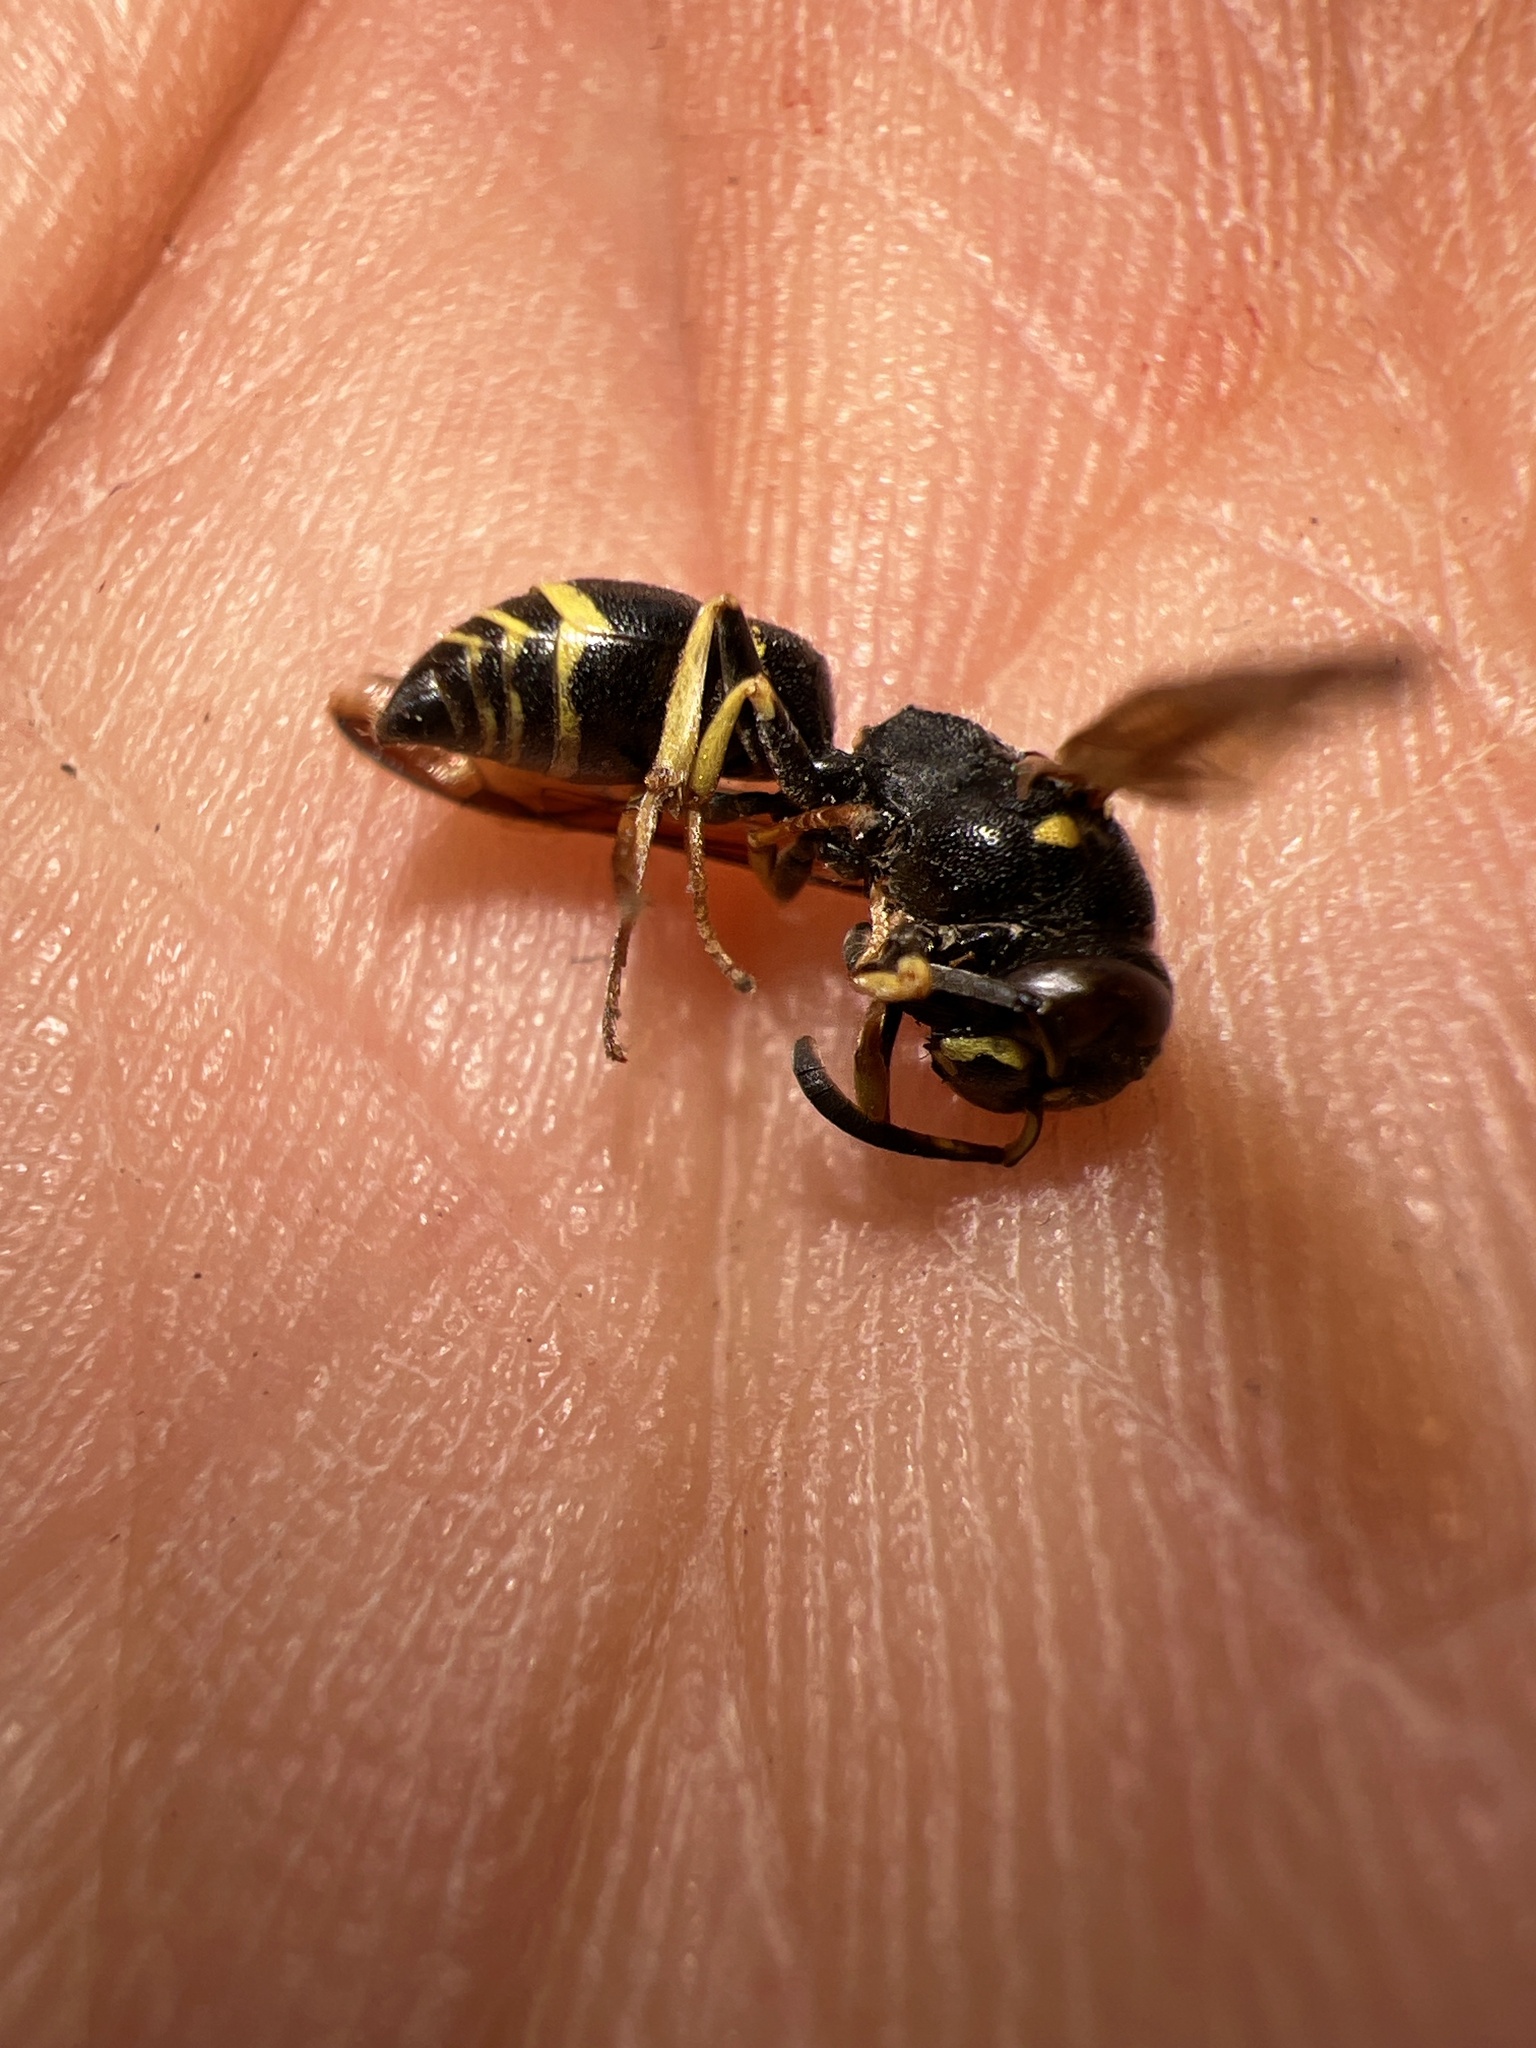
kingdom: Animalia
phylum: Arthropoda
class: Insecta
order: Hymenoptera
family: Vespidae
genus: Ancistrocerus
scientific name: Ancistrocerus
